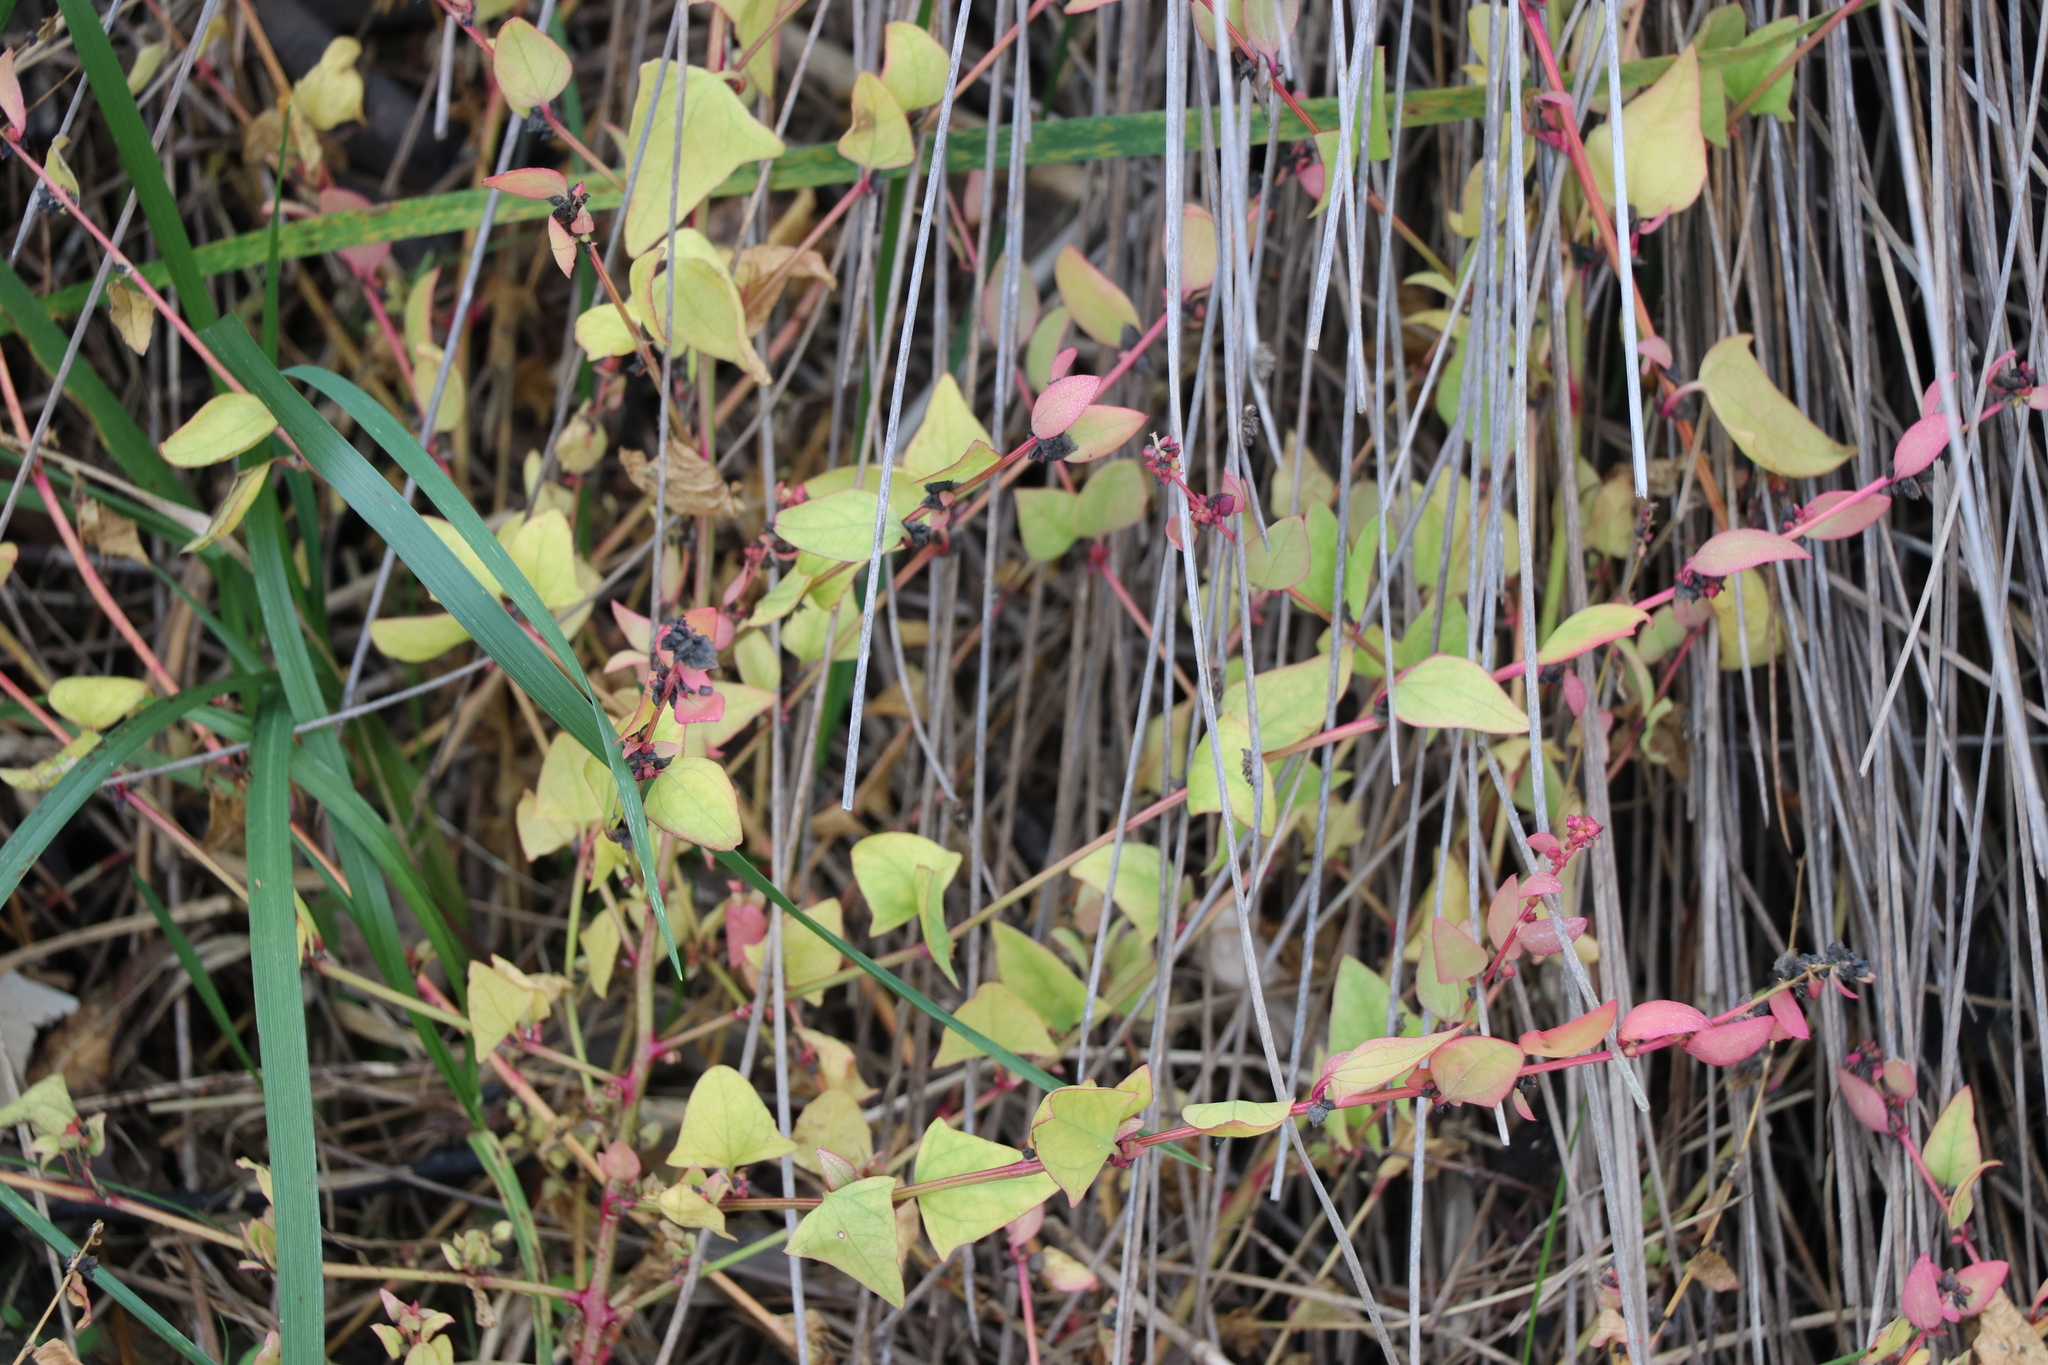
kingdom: Plantae
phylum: Tracheophyta
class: Magnoliopsida
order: Caryophyllales
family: Amaranthaceae
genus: Atriplex
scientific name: Atriplex prostrata
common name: Spear-leaved orache
